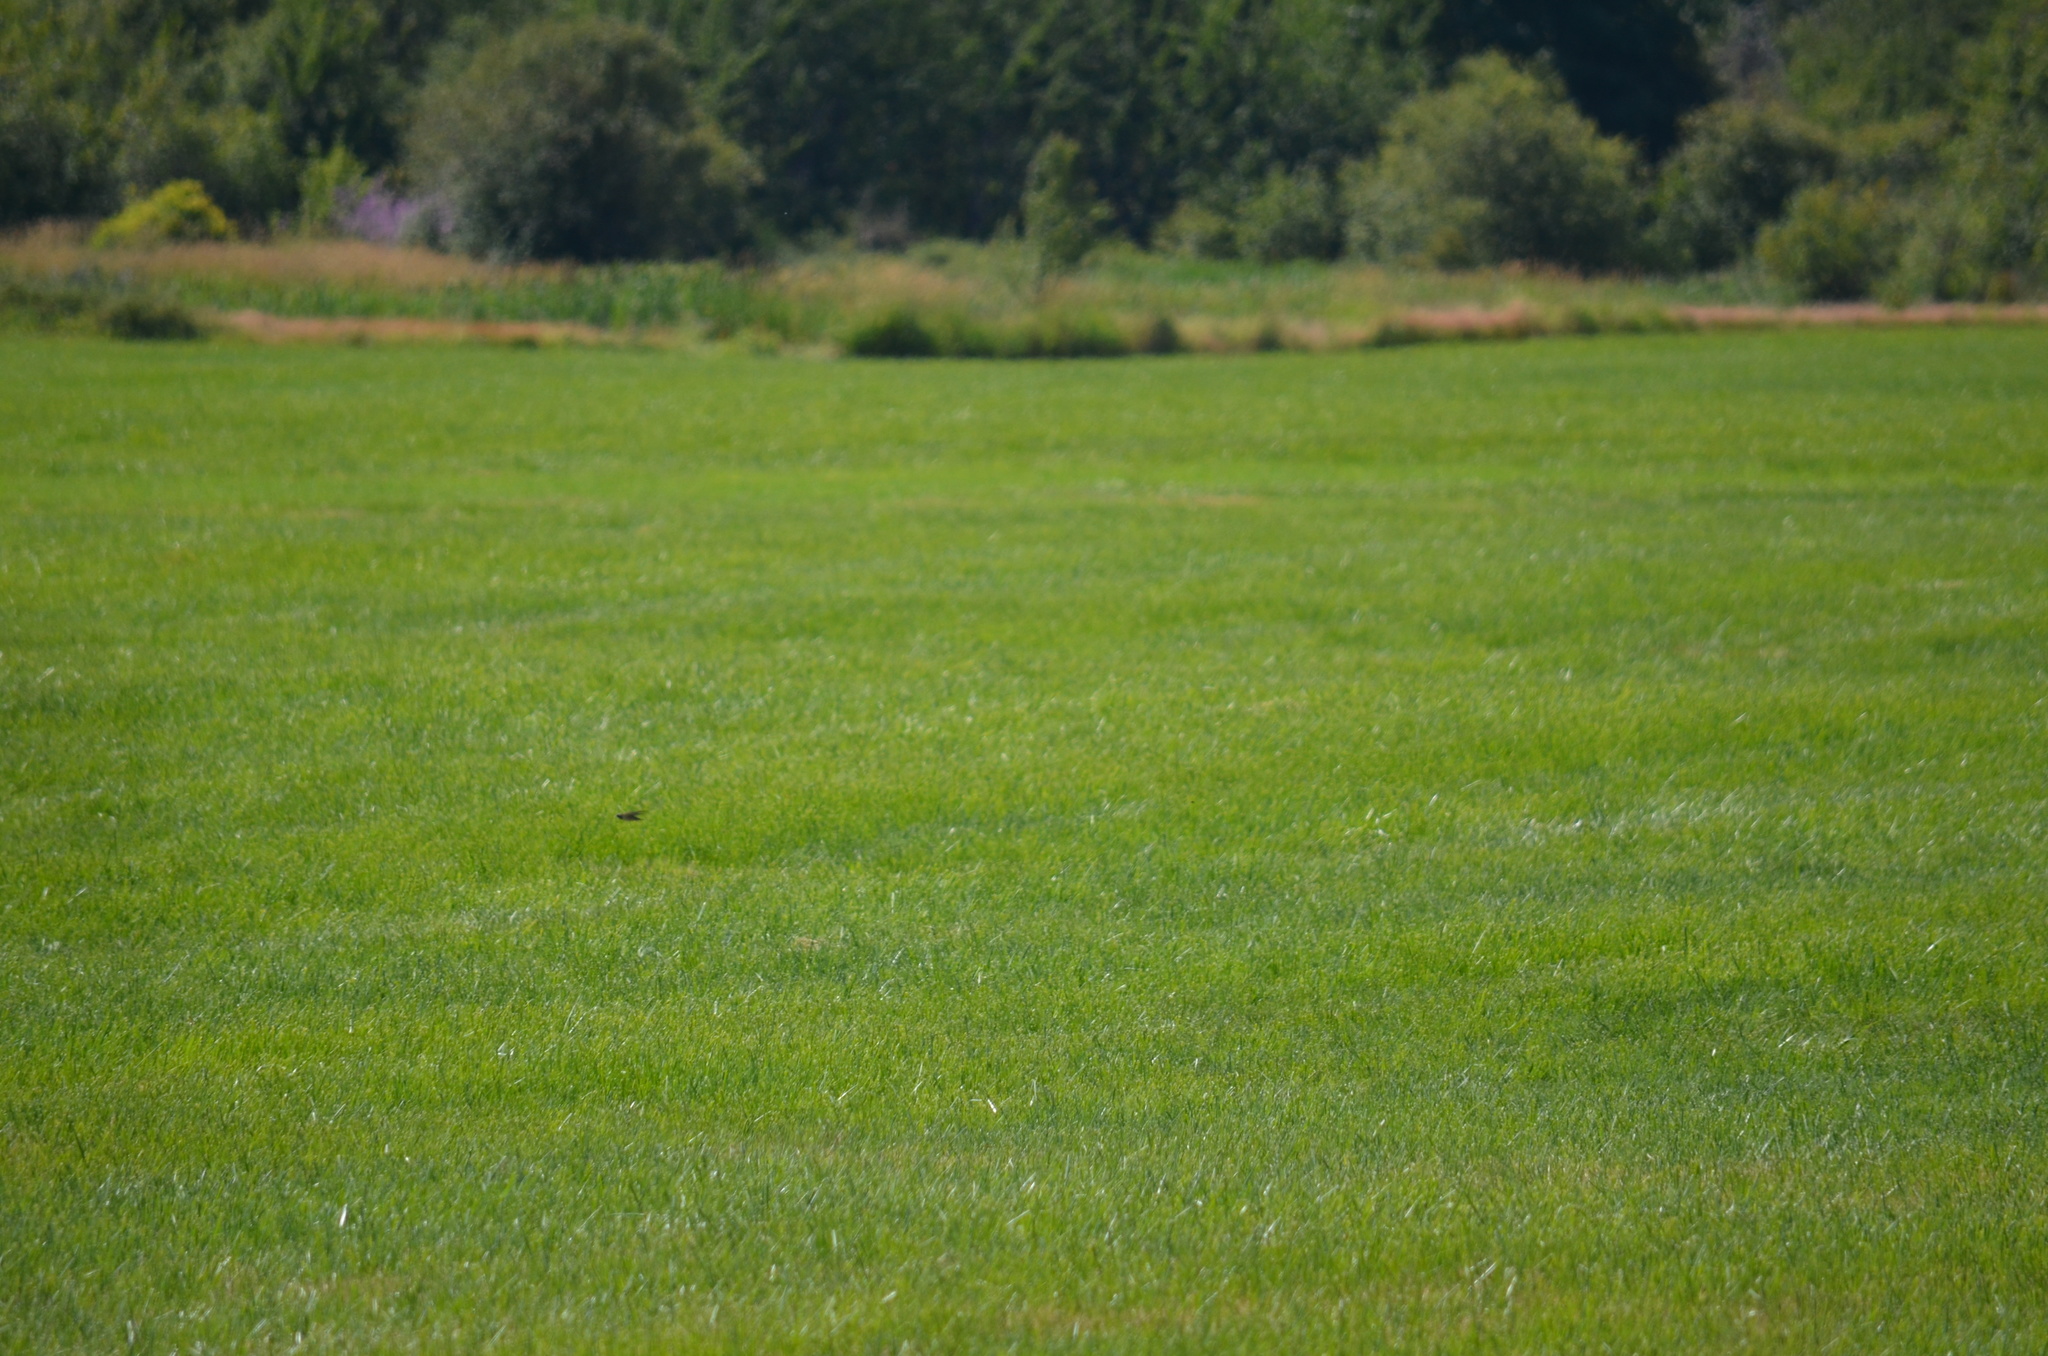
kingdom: Animalia
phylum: Chordata
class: Aves
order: Passeriformes
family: Hirundinidae
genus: Hirundo
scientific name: Hirundo rustica
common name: Barn swallow
